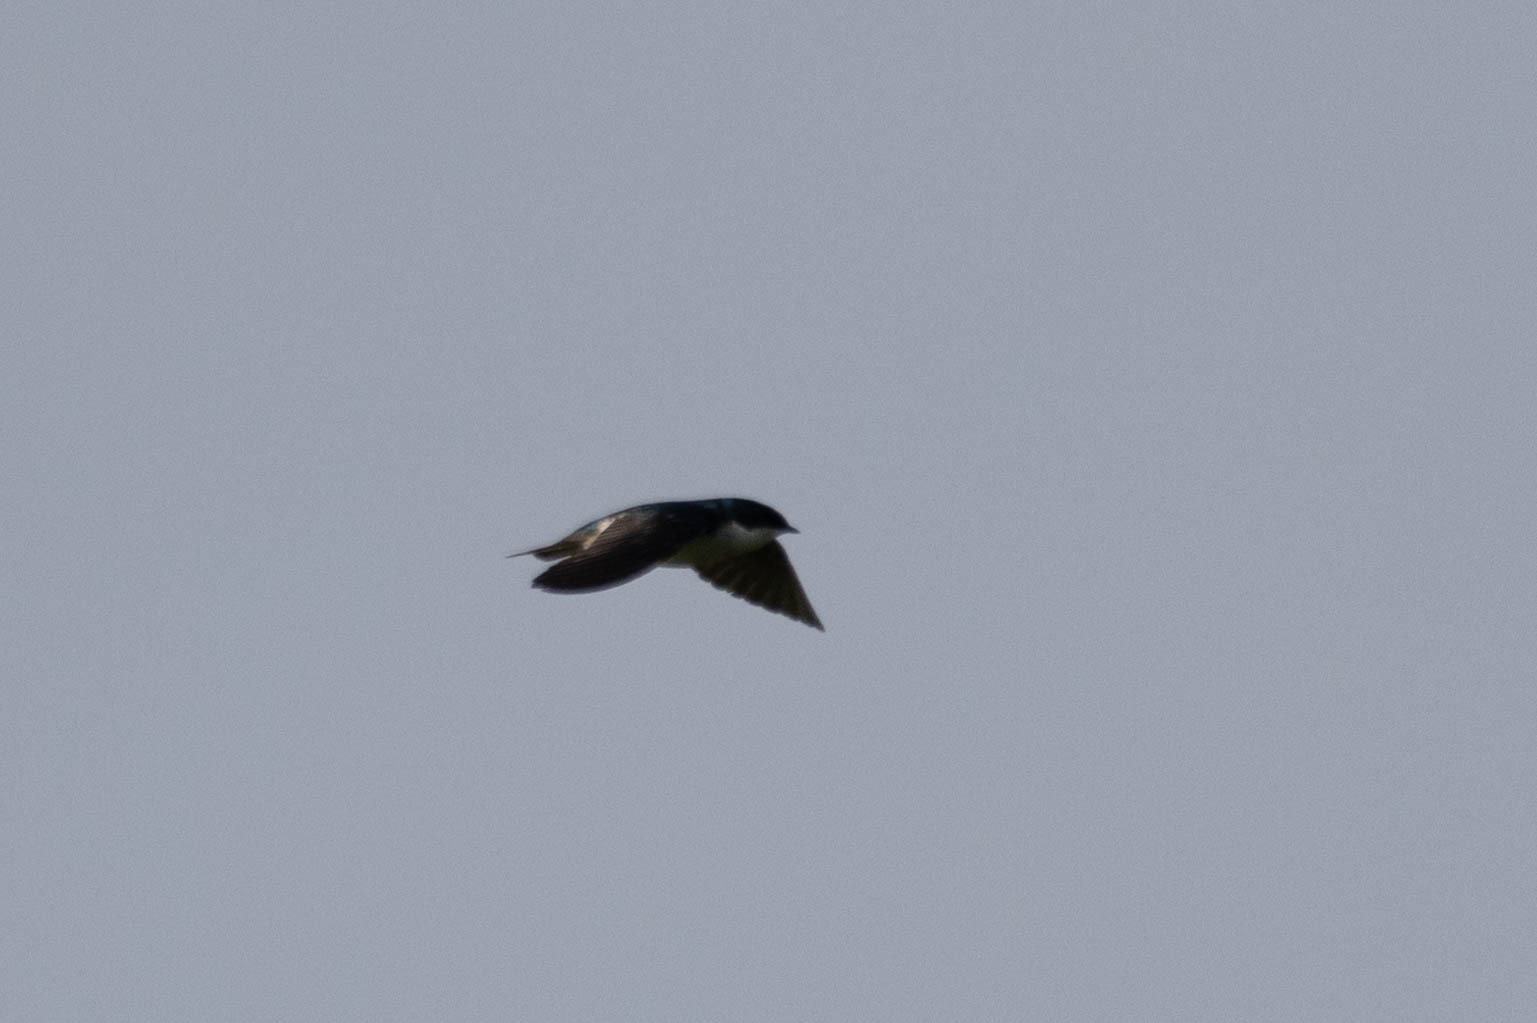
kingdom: Animalia
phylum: Chordata
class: Aves
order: Passeriformes
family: Hirundinidae
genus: Tachycineta
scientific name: Tachycineta bicolor
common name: Tree swallow
